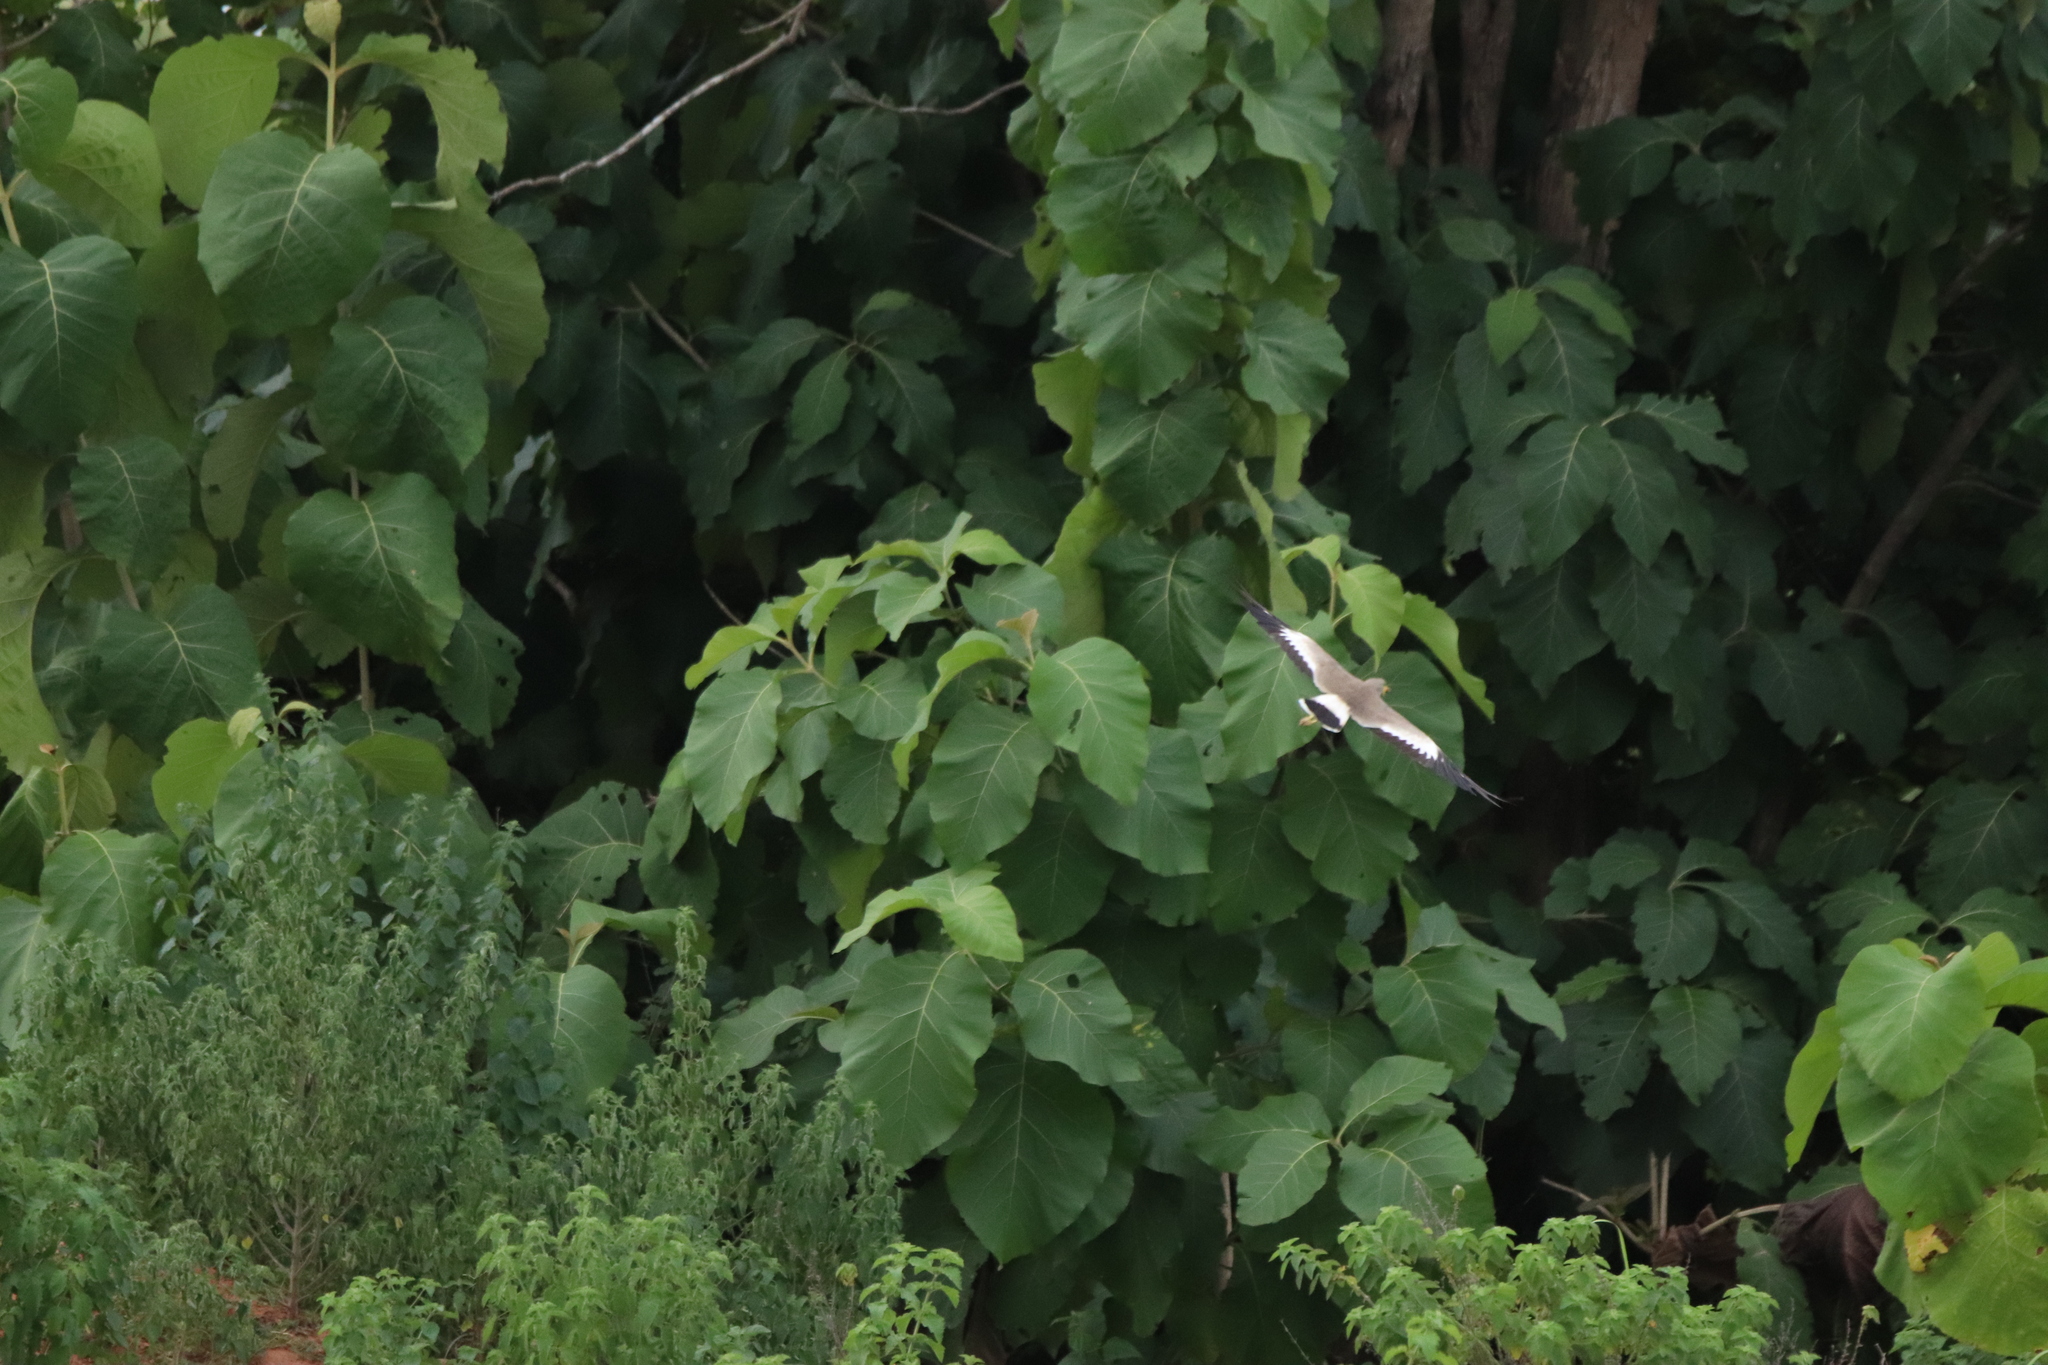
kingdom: Animalia
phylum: Chordata
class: Aves
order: Charadriiformes
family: Charadriidae
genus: Vanellus
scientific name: Vanellus senegallus
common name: African wattled lapwing
